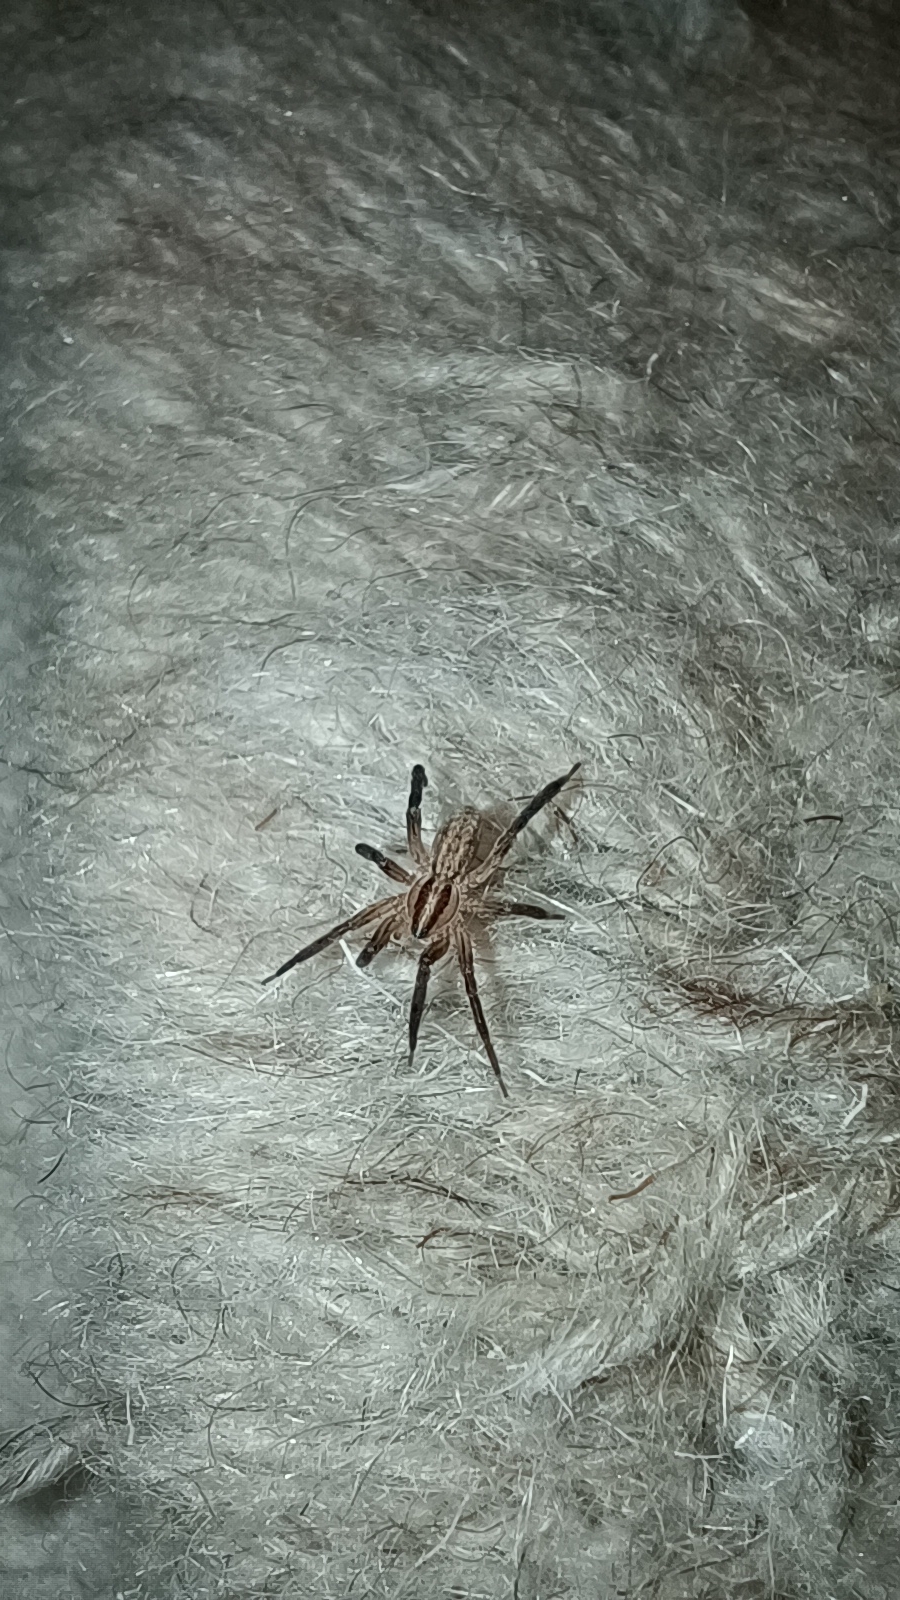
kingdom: Animalia
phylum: Arthropoda
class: Arachnida
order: Araneae
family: Miturgidae
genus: Zora
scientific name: Zora spinimana
